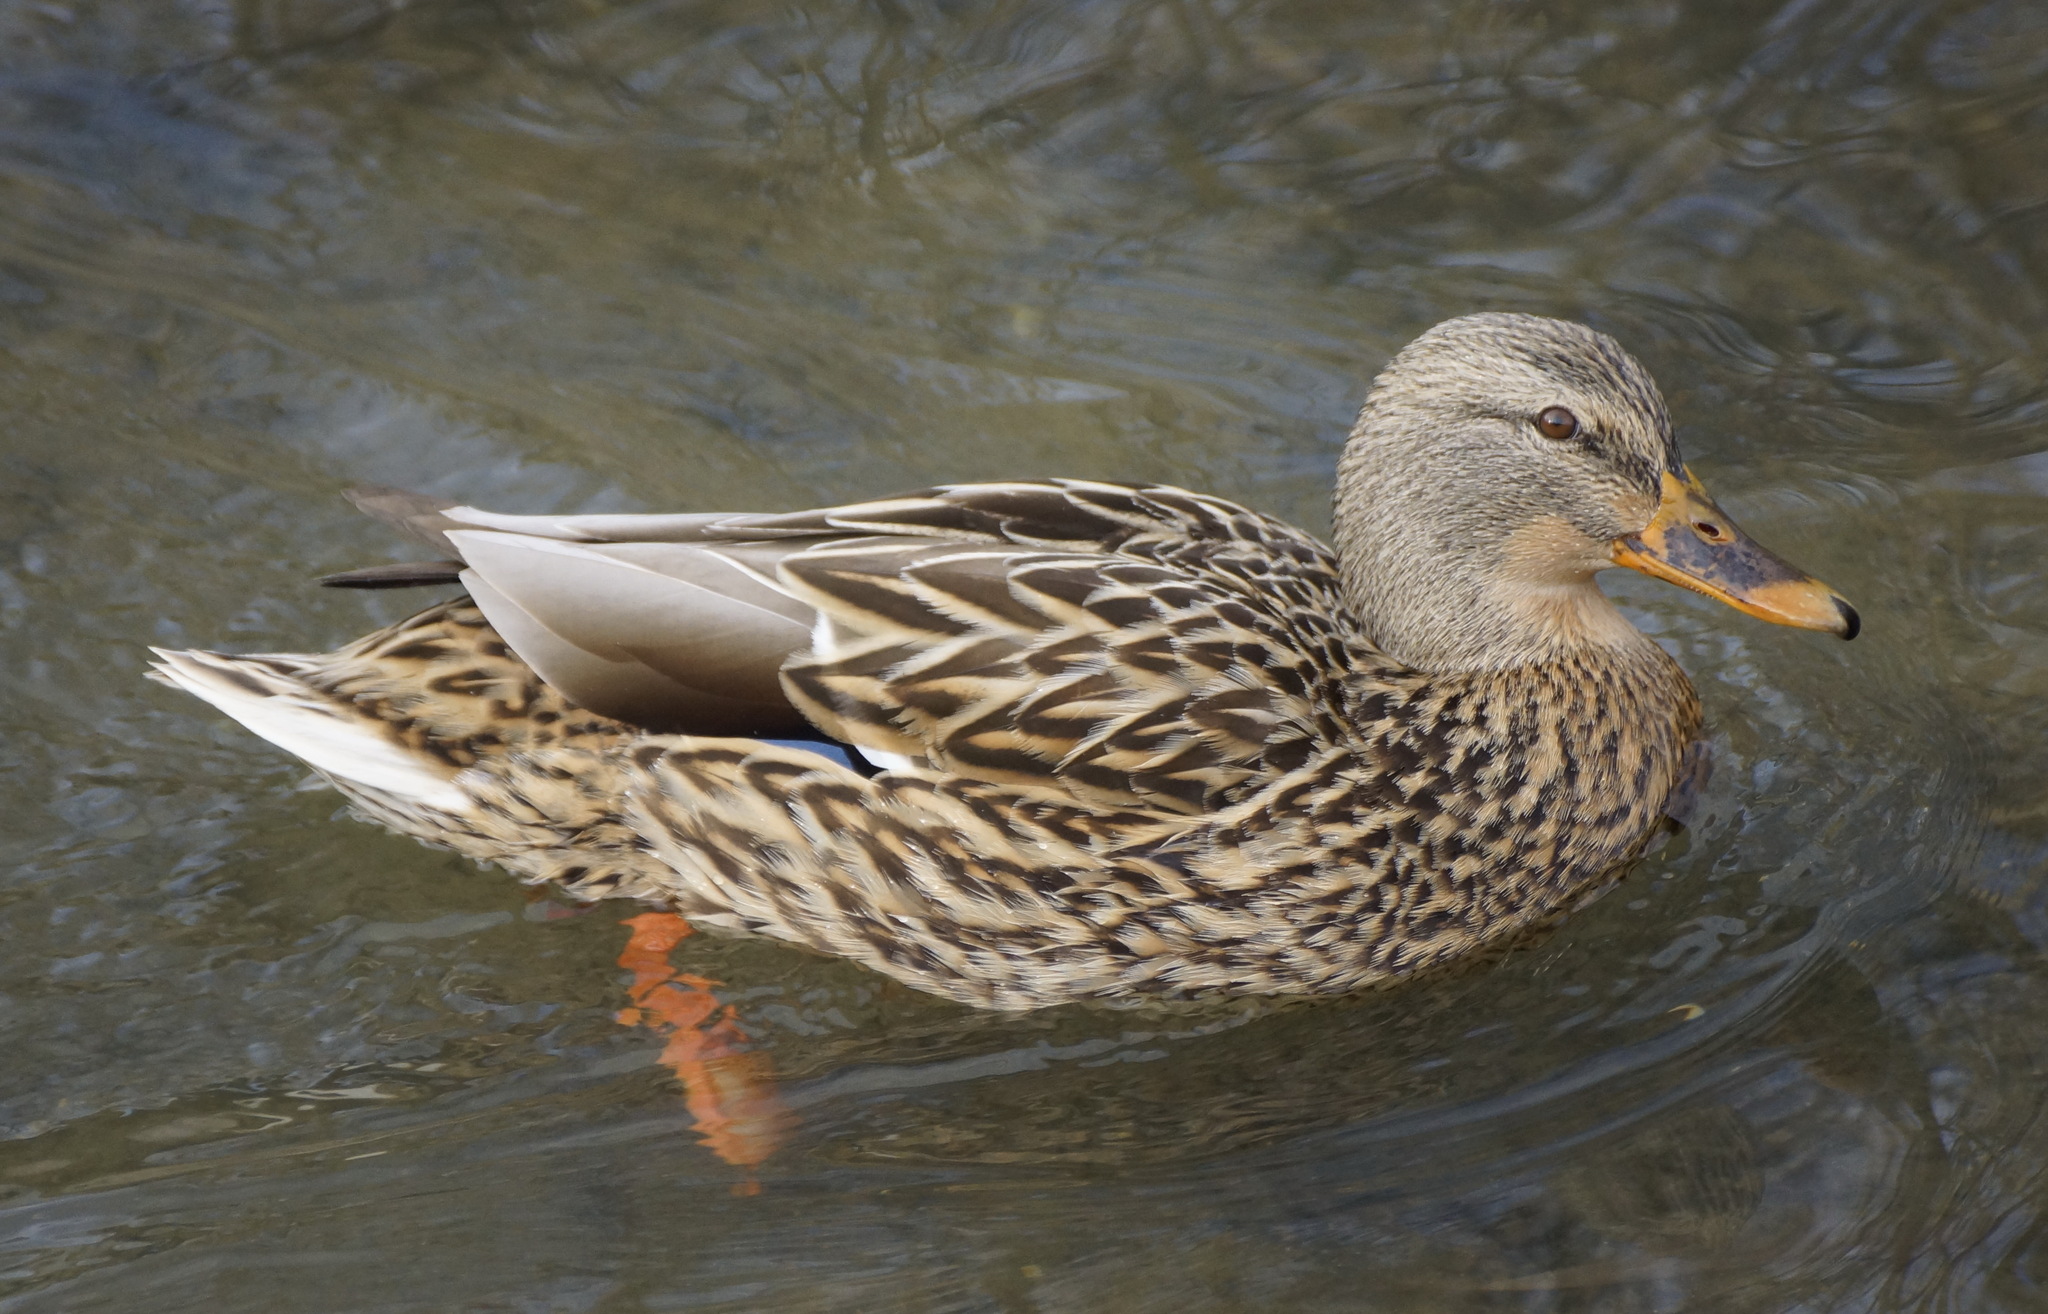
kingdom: Animalia
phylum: Chordata
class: Aves
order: Anseriformes
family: Anatidae
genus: Anas
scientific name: Anas platyrhynchos
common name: Mallard
